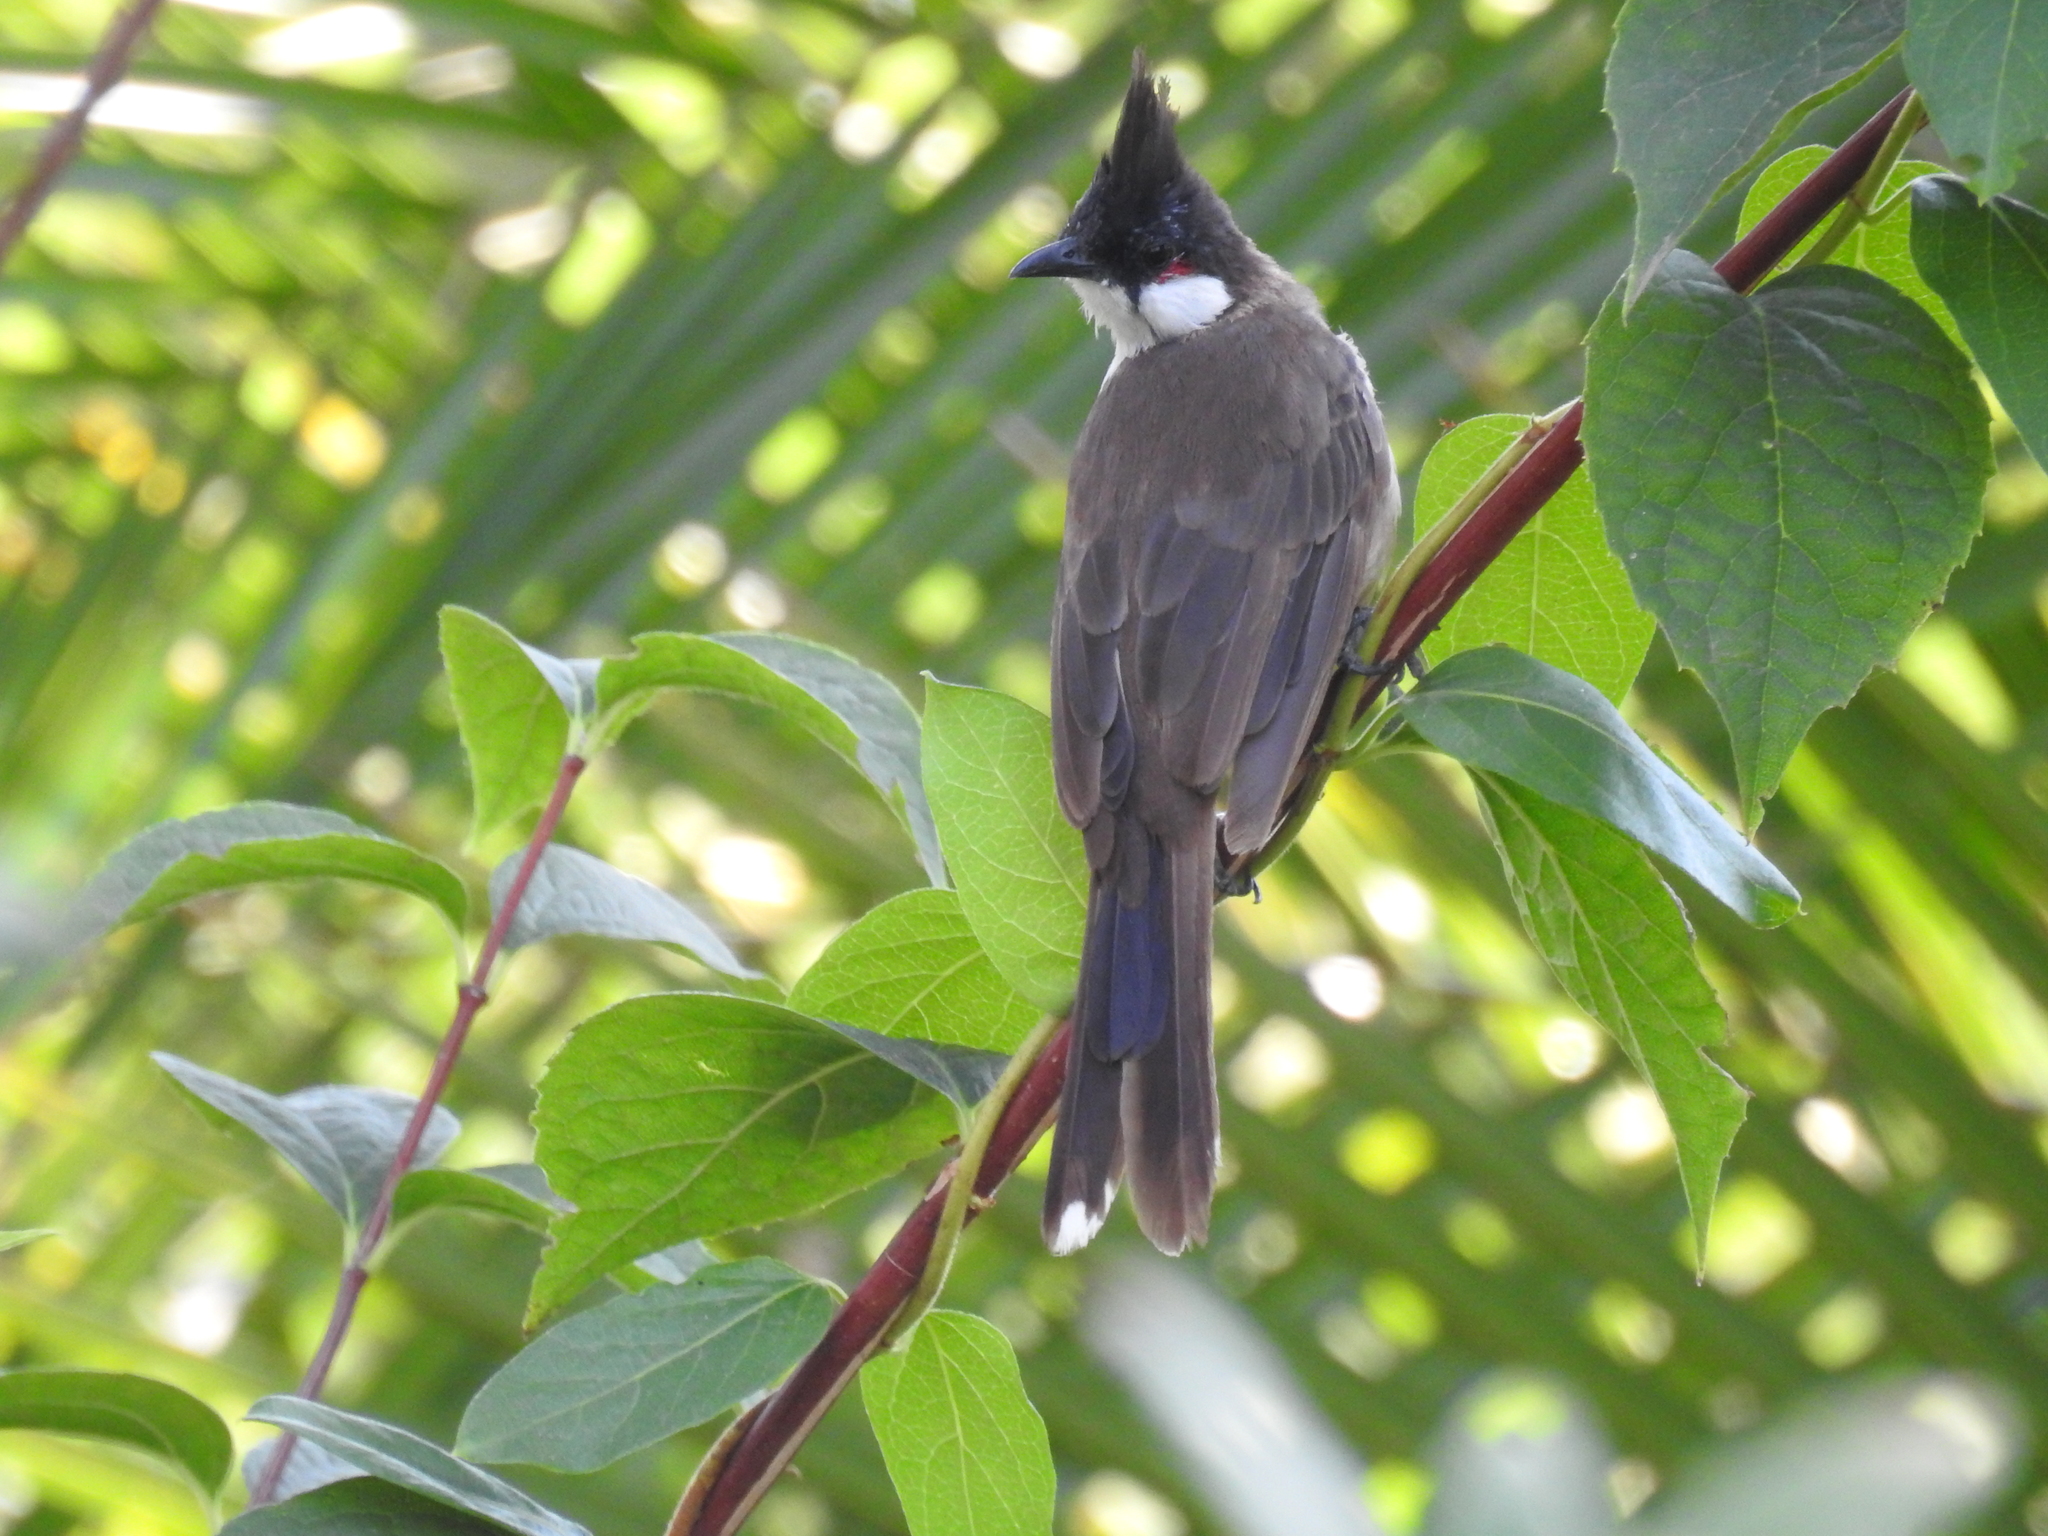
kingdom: Animalia
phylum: Chordata
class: Aves
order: Passeriformes
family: Pycnonotidae
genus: Pycnonotus
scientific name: Pycnonotus jocosus
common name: Red-whiskered bulbul
